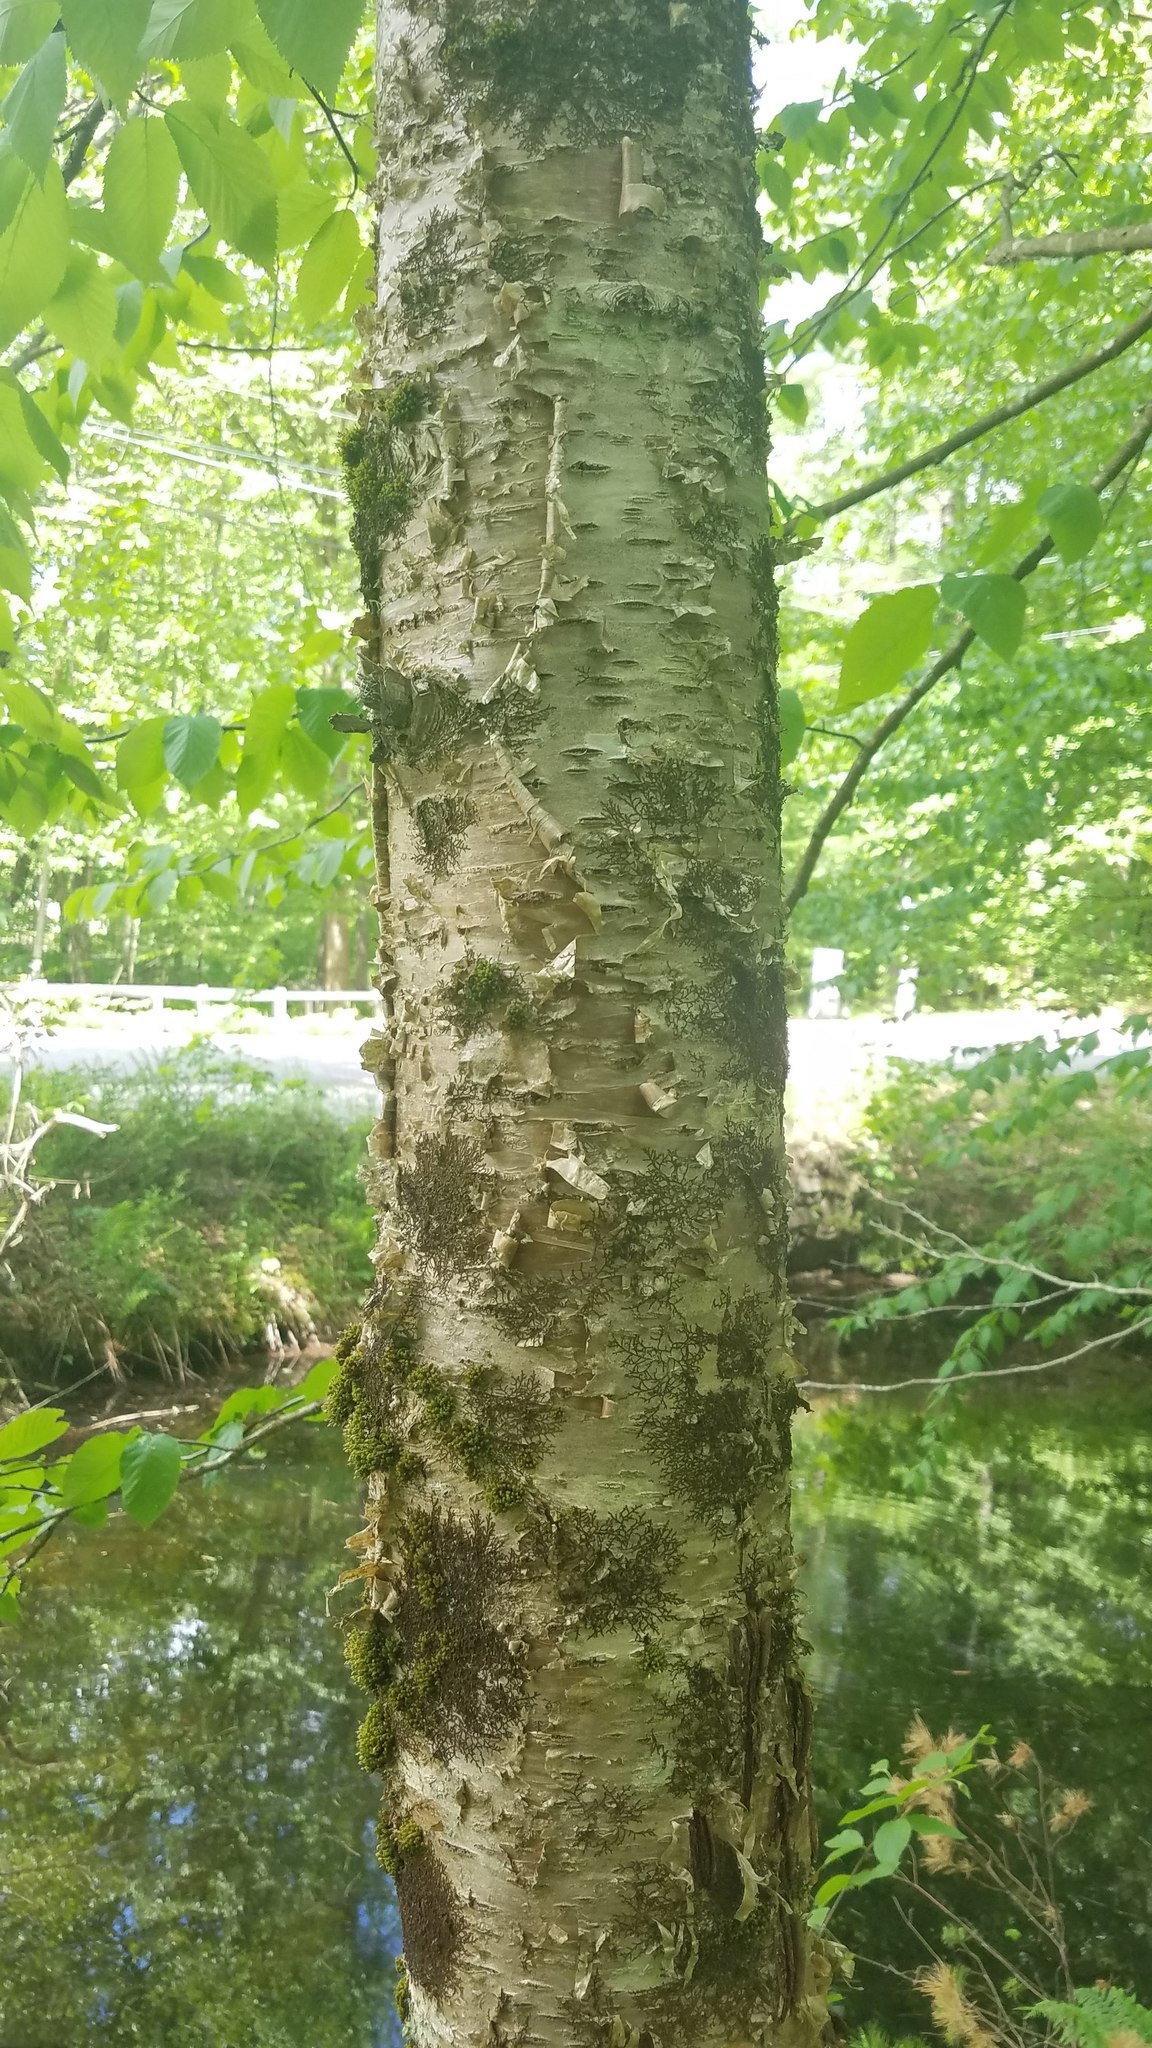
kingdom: Plantae
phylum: Tracheophyta
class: Magnoliopsida
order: Fagales
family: Betulaceae
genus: Betula
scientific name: Betula alleghaniensis
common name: Yellow birch
